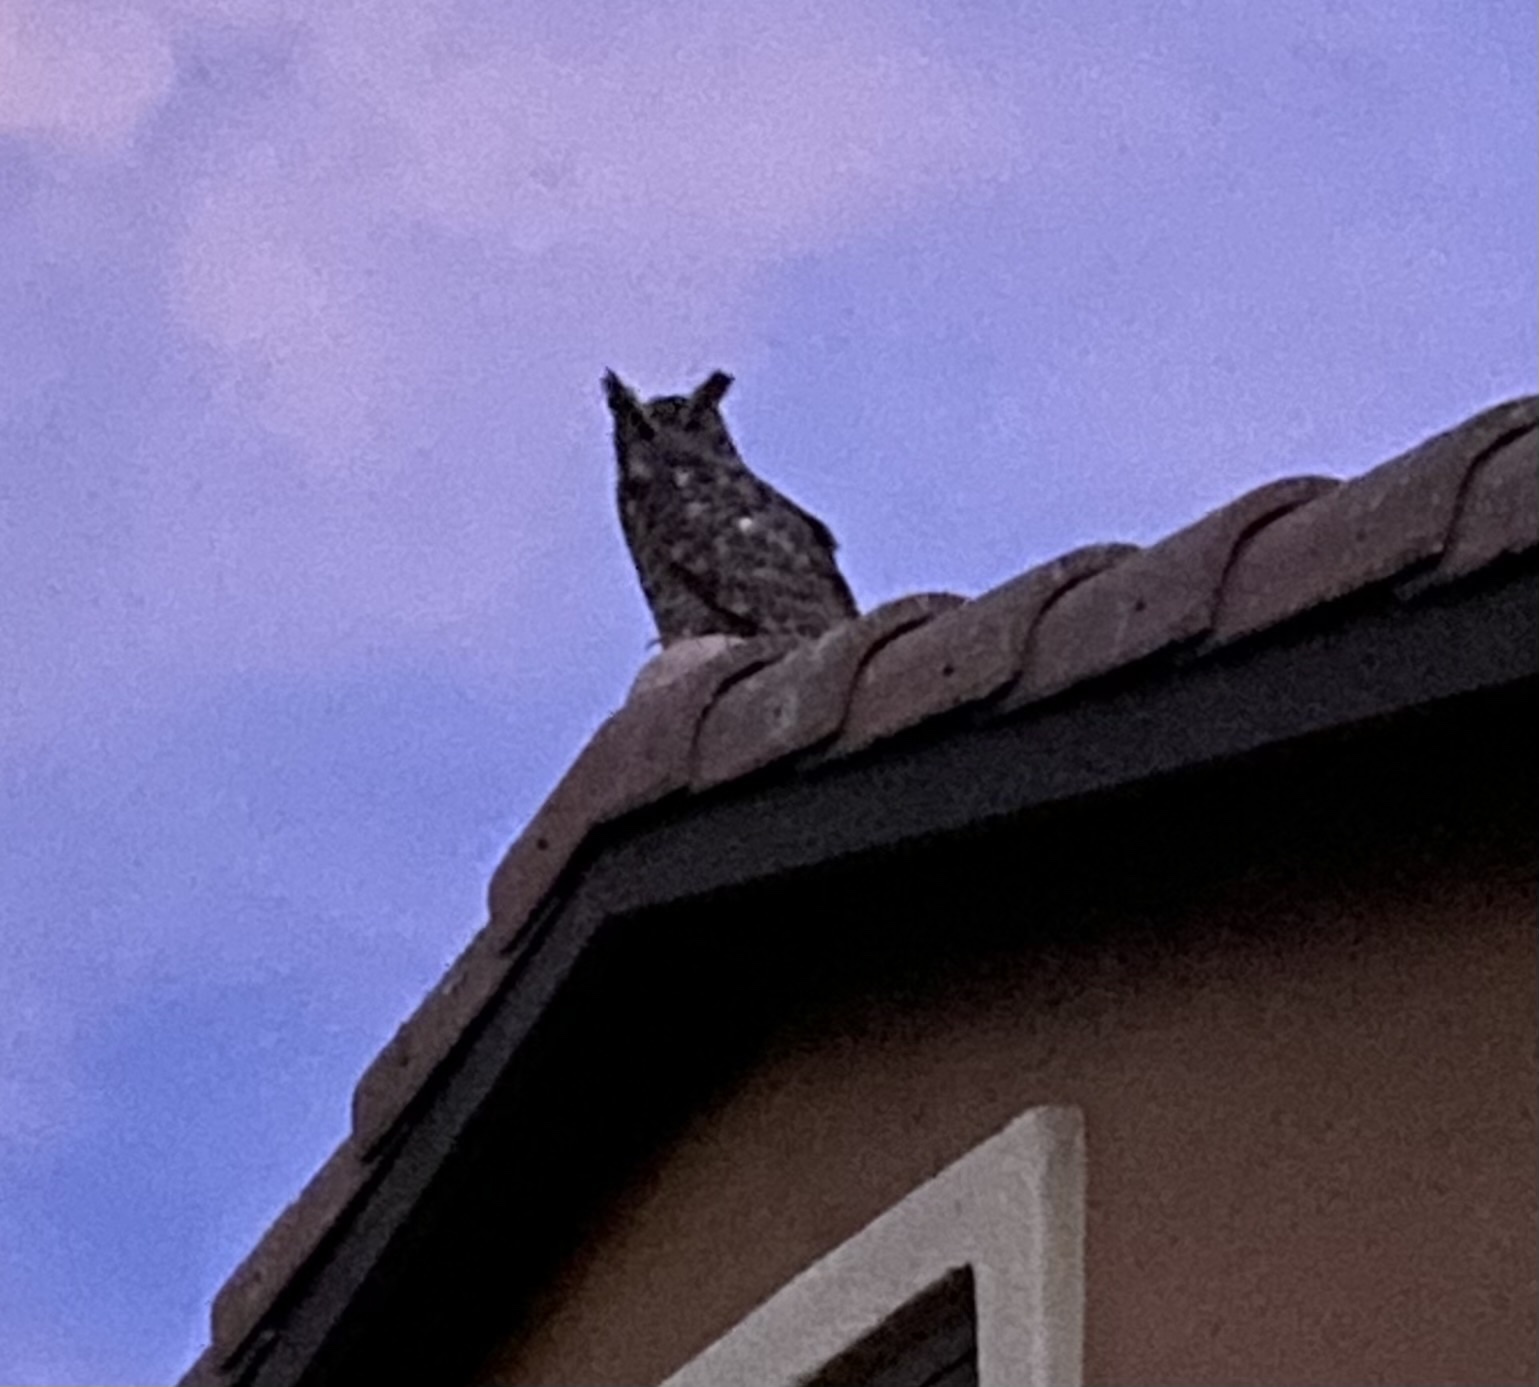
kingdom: Animalia
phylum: Chordata
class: Aves
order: Strigiformes
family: Strigidae
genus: Bubo
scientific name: Bubo virginianus
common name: Great horned owl
